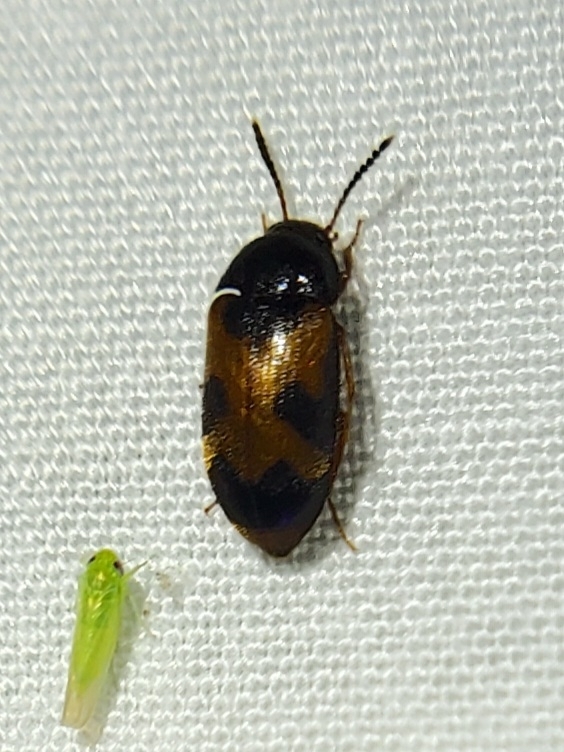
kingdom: Animalia
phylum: Arthropoda
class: Insecta
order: Coleoptera
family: Mycetophagidae
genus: Mycetophagus
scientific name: Mycetophagus punctatus
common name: Hairy fungus beetle
